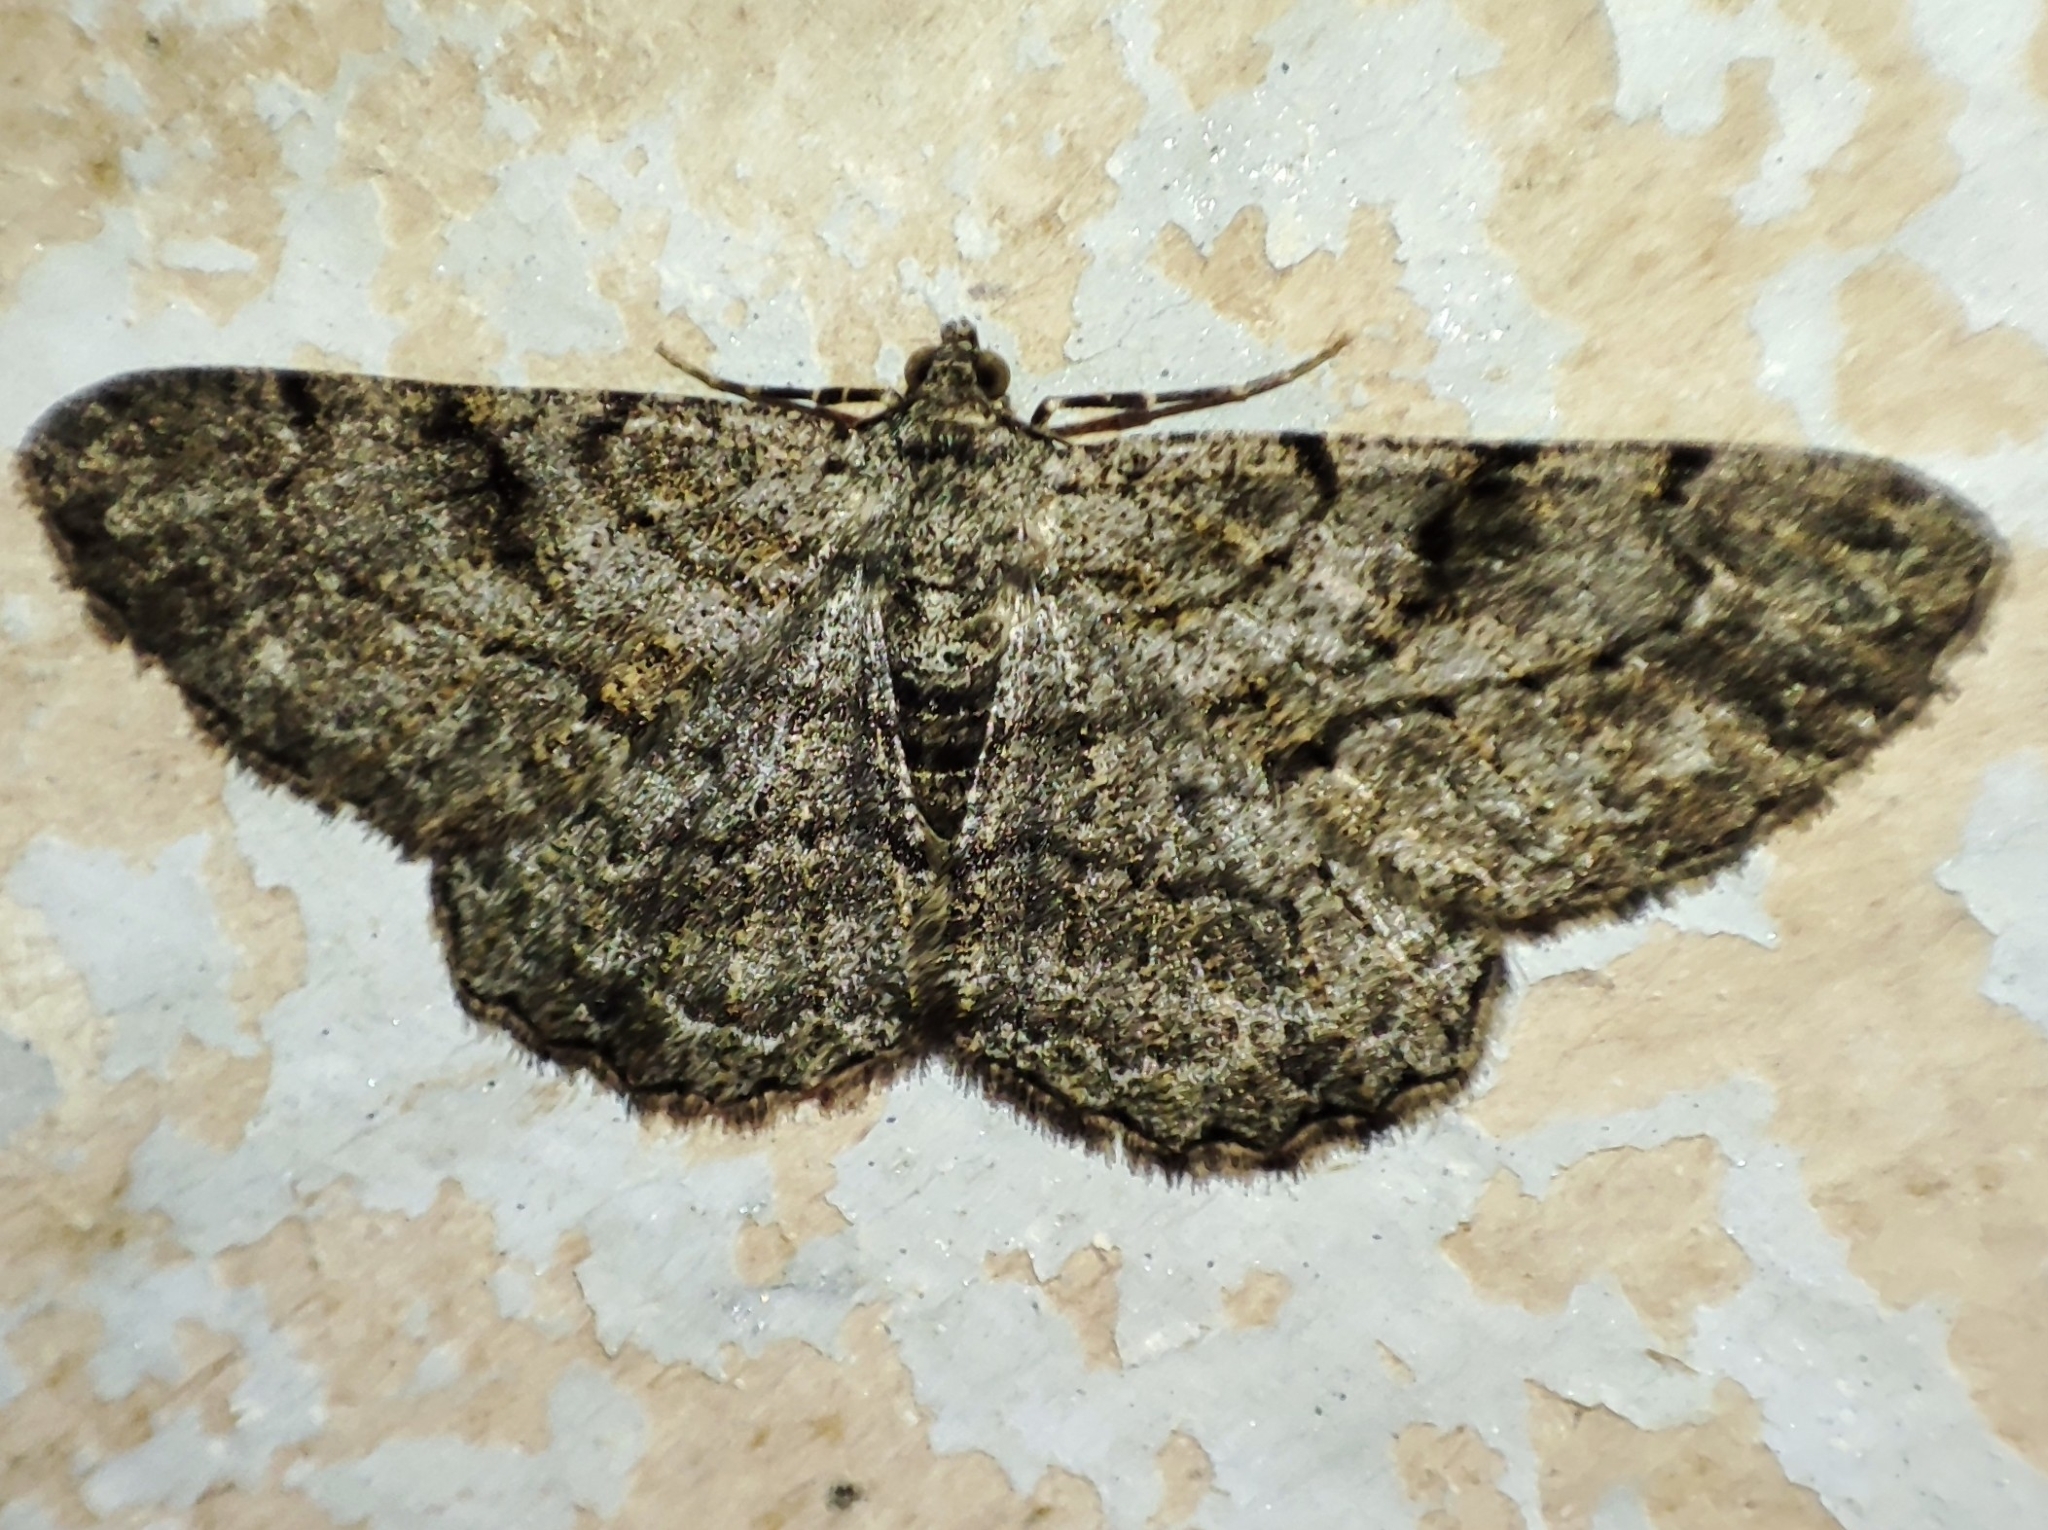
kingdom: Animalia
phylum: Arthropoda
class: Insecta
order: Lepidoptera
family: Geometridae
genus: Peribatodes
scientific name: Peribatodes rhomboidaria
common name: Willow beauty
